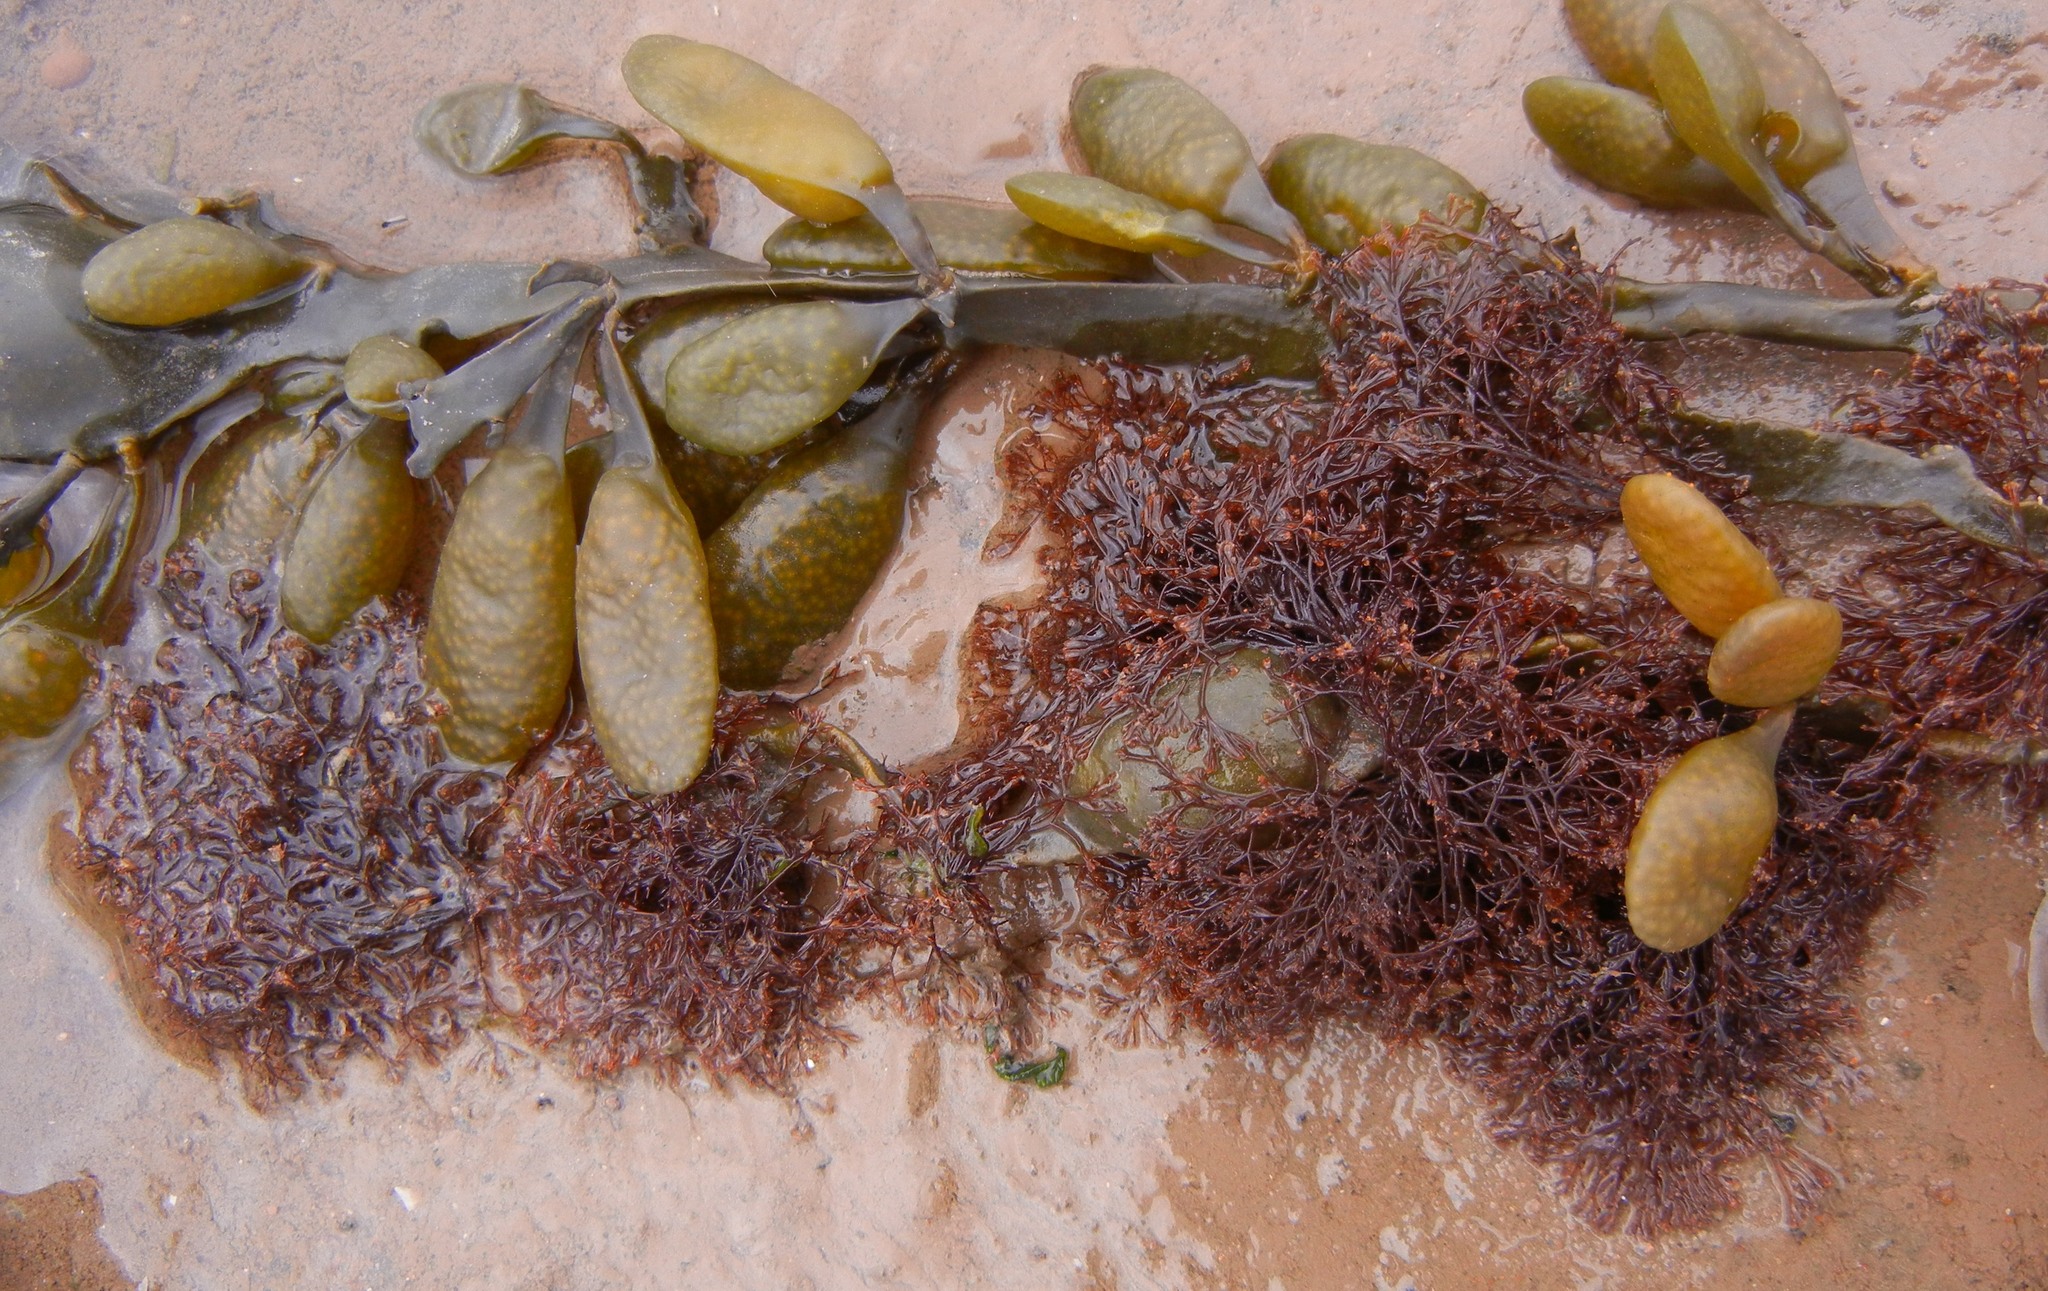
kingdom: Plantae
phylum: Rhodophyta
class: Florideophyceae
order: Ceramiales
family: Rhodomelaceae
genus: Vertebrata
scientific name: Vertebrata lanosa
